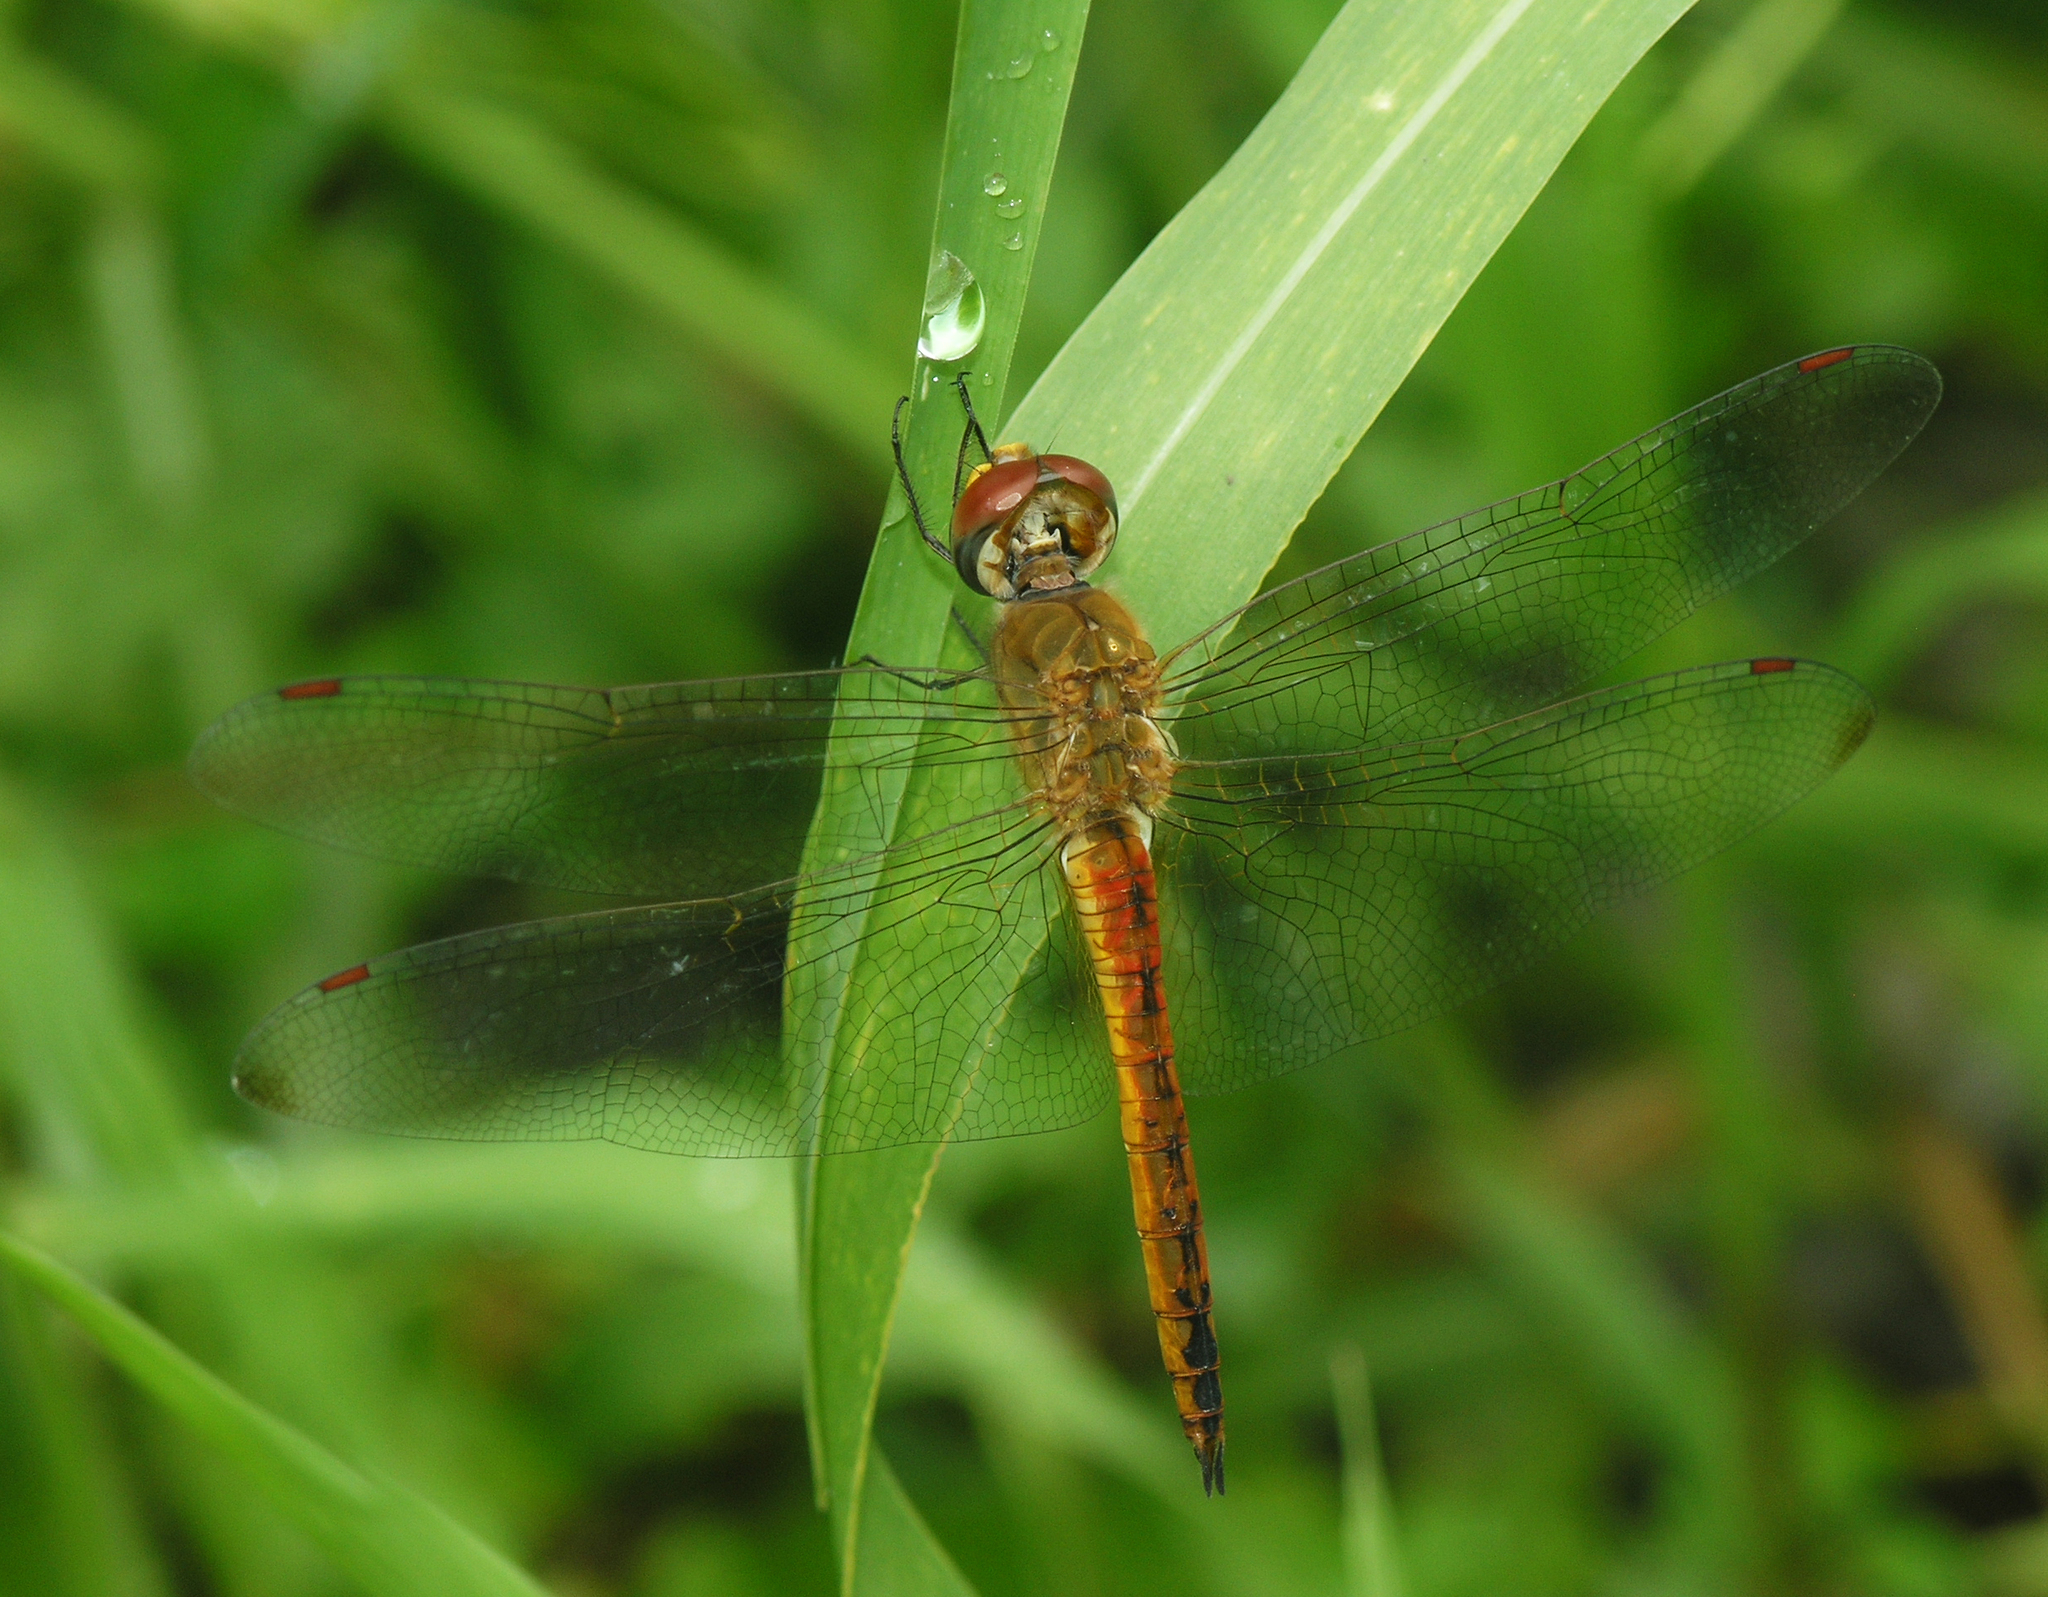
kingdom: Animalia
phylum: Arthropoda
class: Insecta
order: Odonata
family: Libellulidae
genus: Pantala
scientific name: Pantala flavescens
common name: Wandering glider
